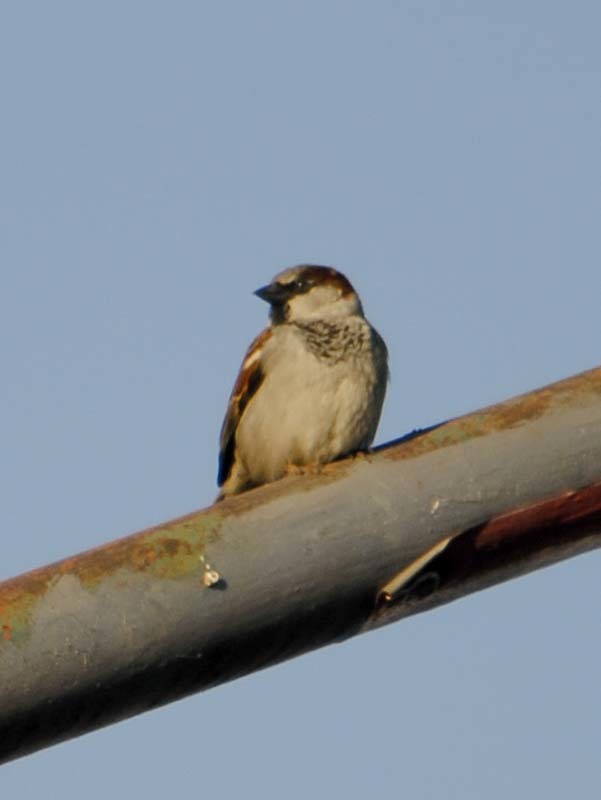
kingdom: Animalia
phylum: Chordata
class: Aves
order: Passeriformes
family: Passeridae
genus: Passer
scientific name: Passer domesticus
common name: House sparrow
